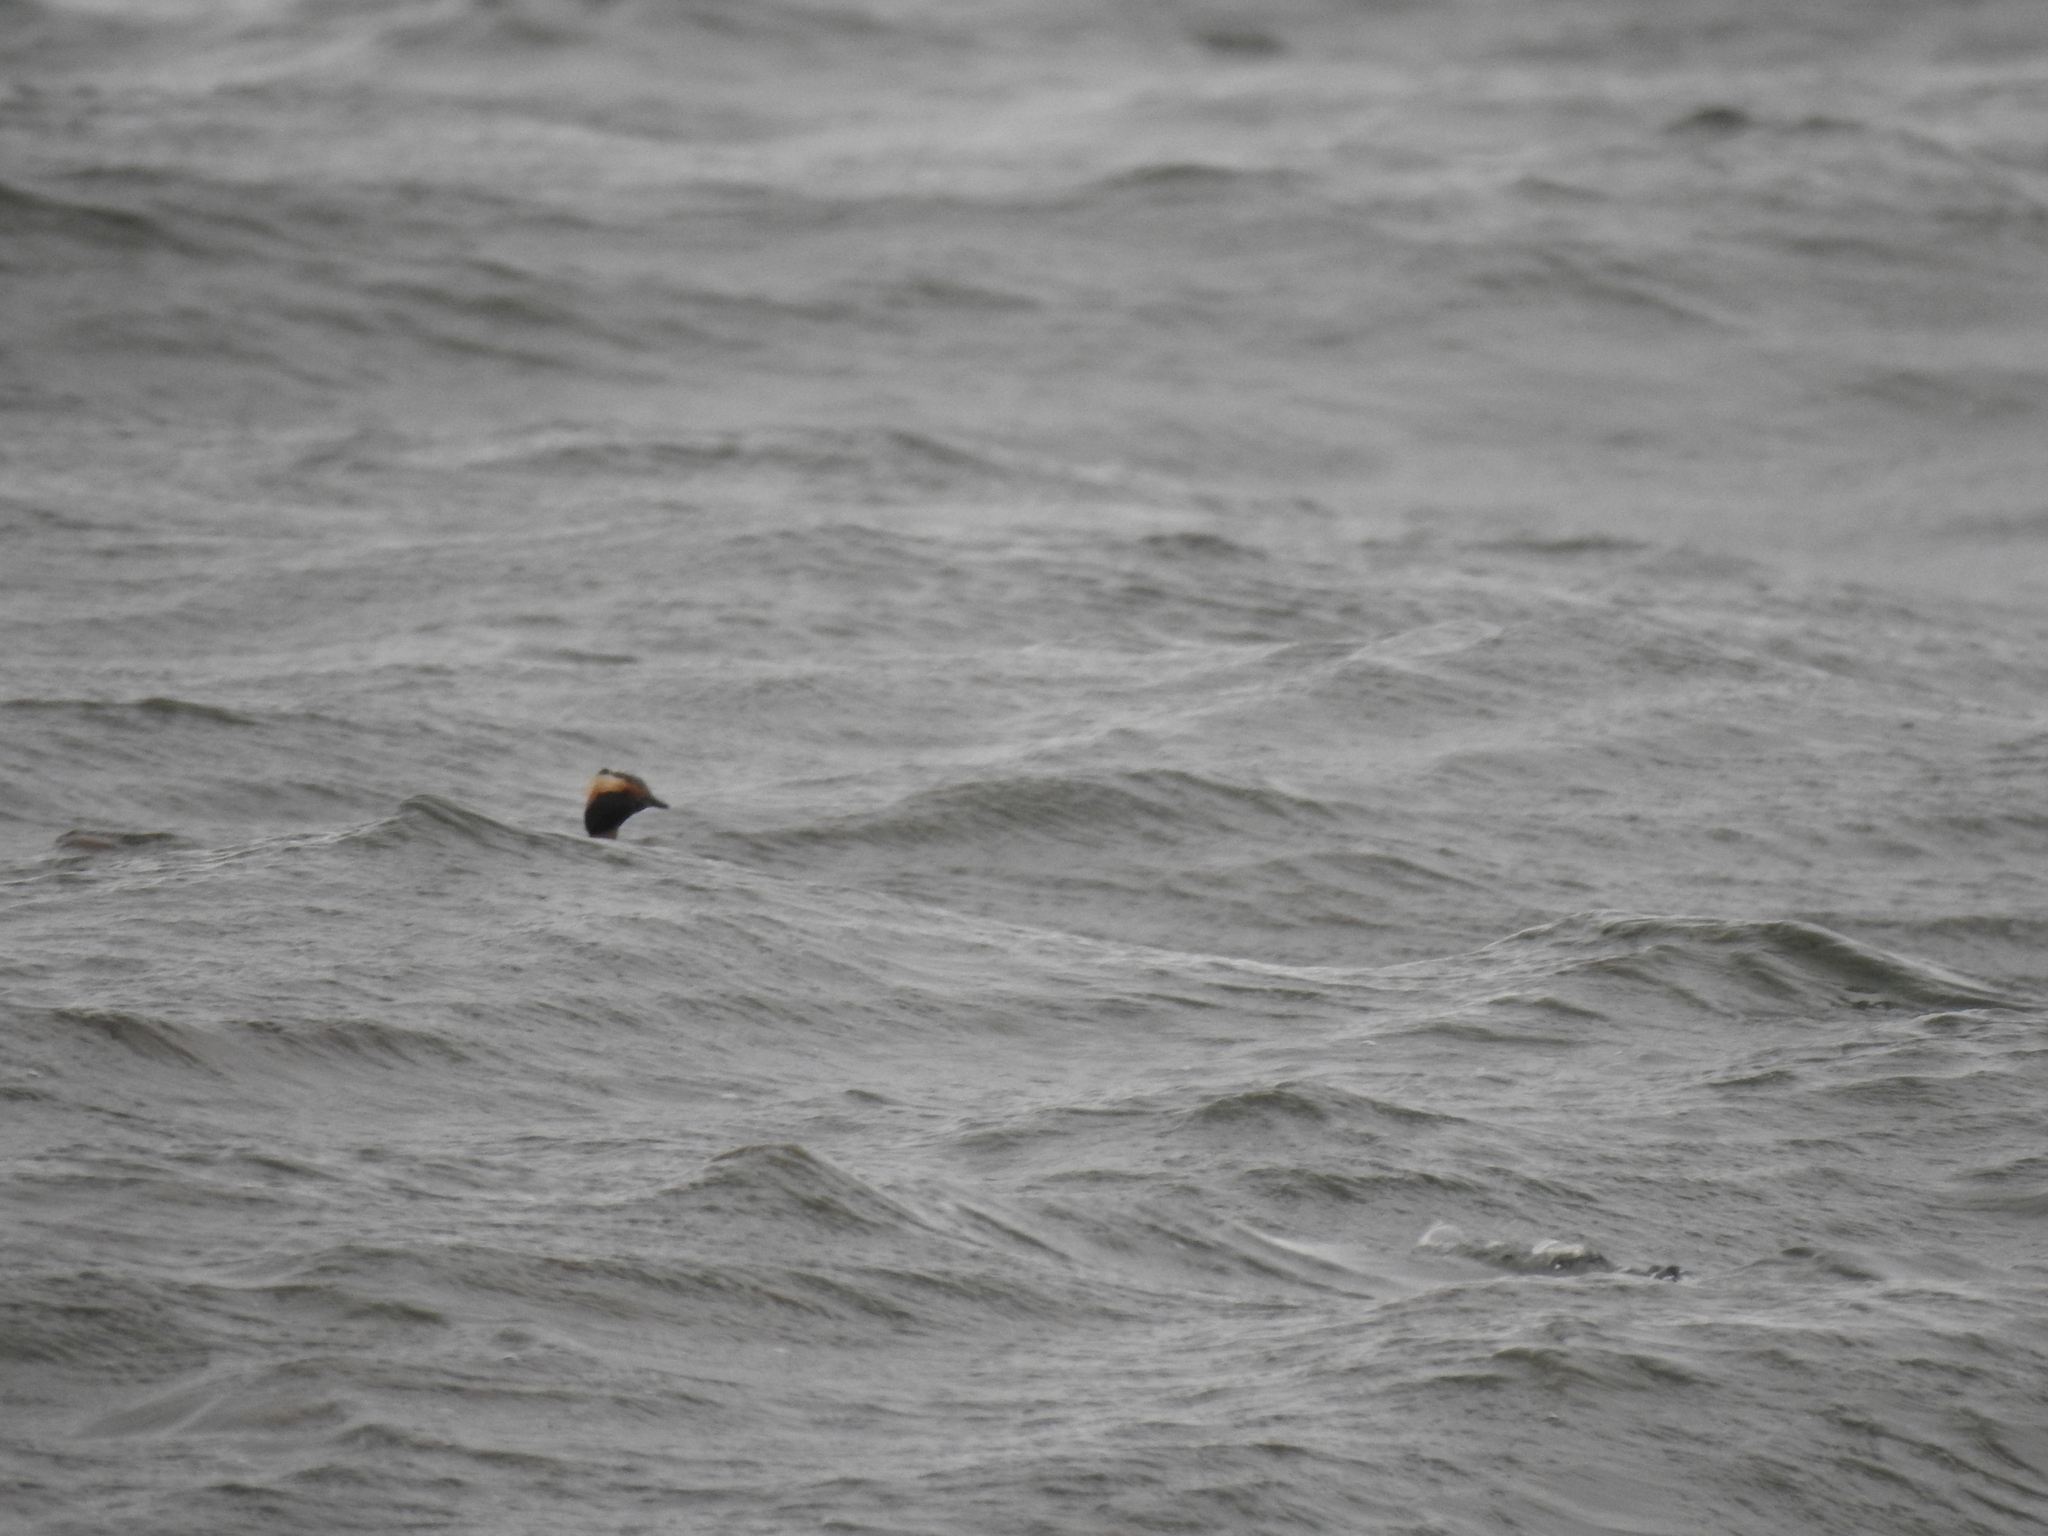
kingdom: Animalia
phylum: Chordata
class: Aves
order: Podicipediformes
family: Podicipedidae
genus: Podiceps
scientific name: Podiceps auritus
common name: Horned grebe
